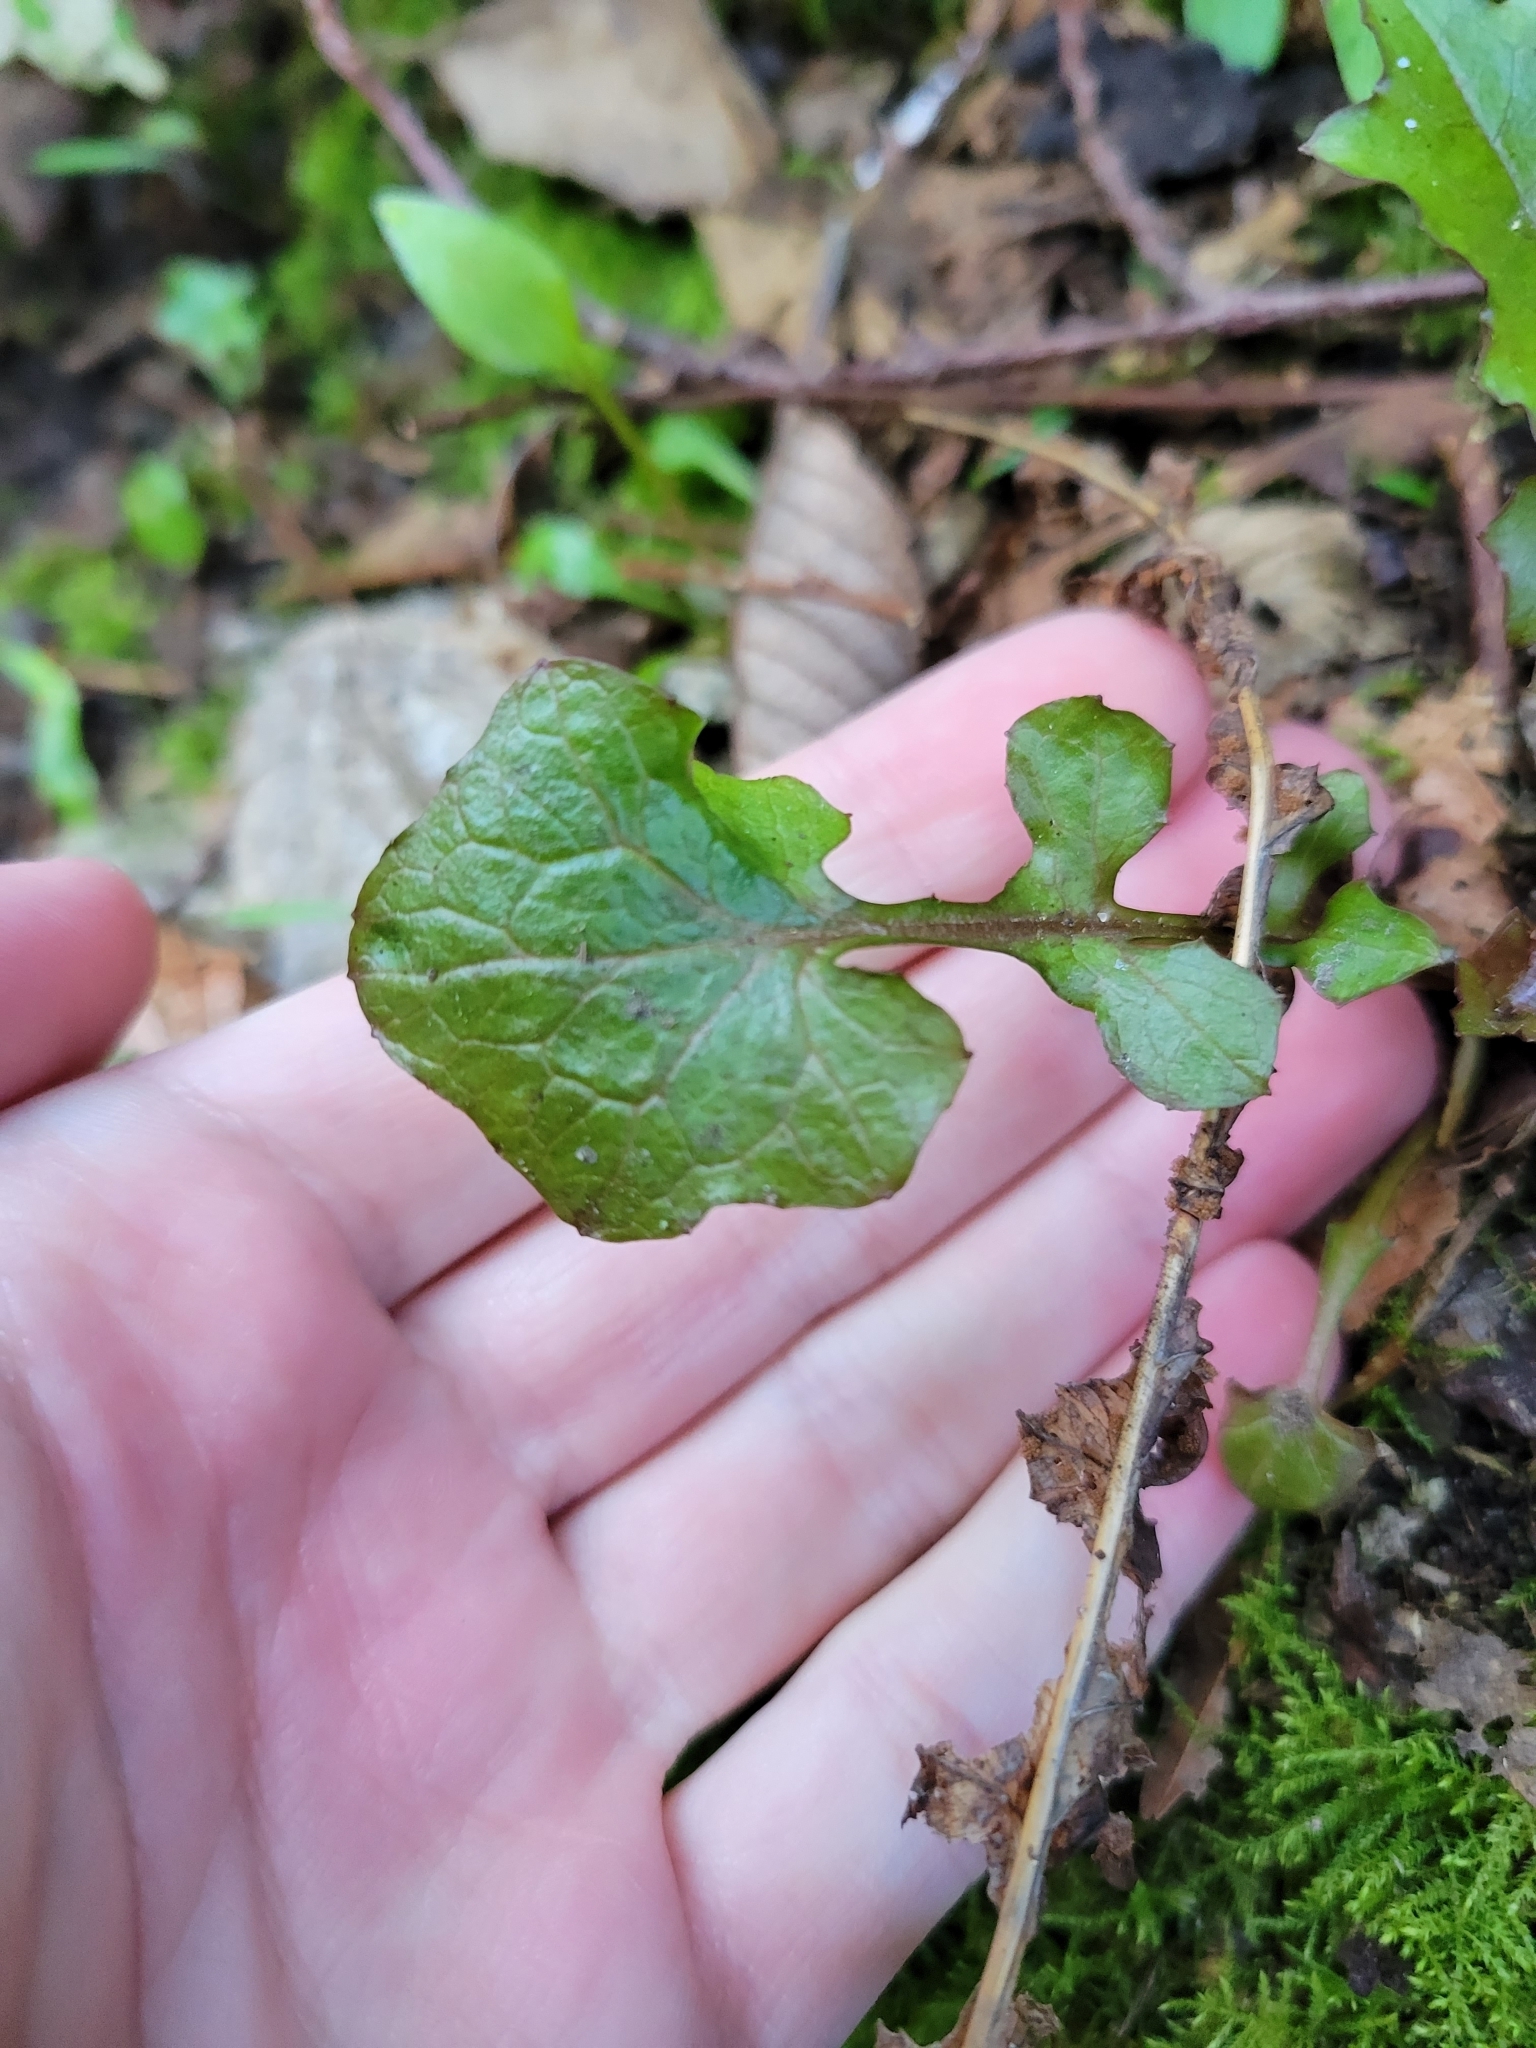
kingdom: Plantae
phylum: Tracheophyta
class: Magnoliopsida
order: Asterales
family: Asteraceae
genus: Mycelis
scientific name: Mycelis muralis
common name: Wall lettuce
